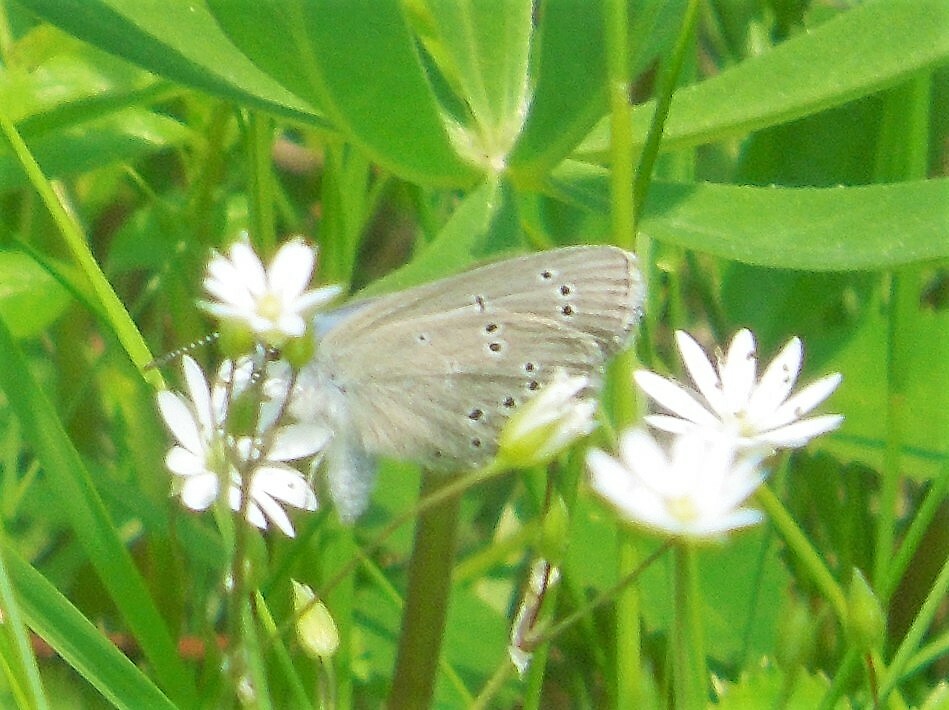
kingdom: Animalia
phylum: Arthropoda
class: Insecta
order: Lepidoptera
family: Lycaenidae
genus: Glaucopsyche
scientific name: Glaucopsyche lygdamus
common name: Silvery blue
